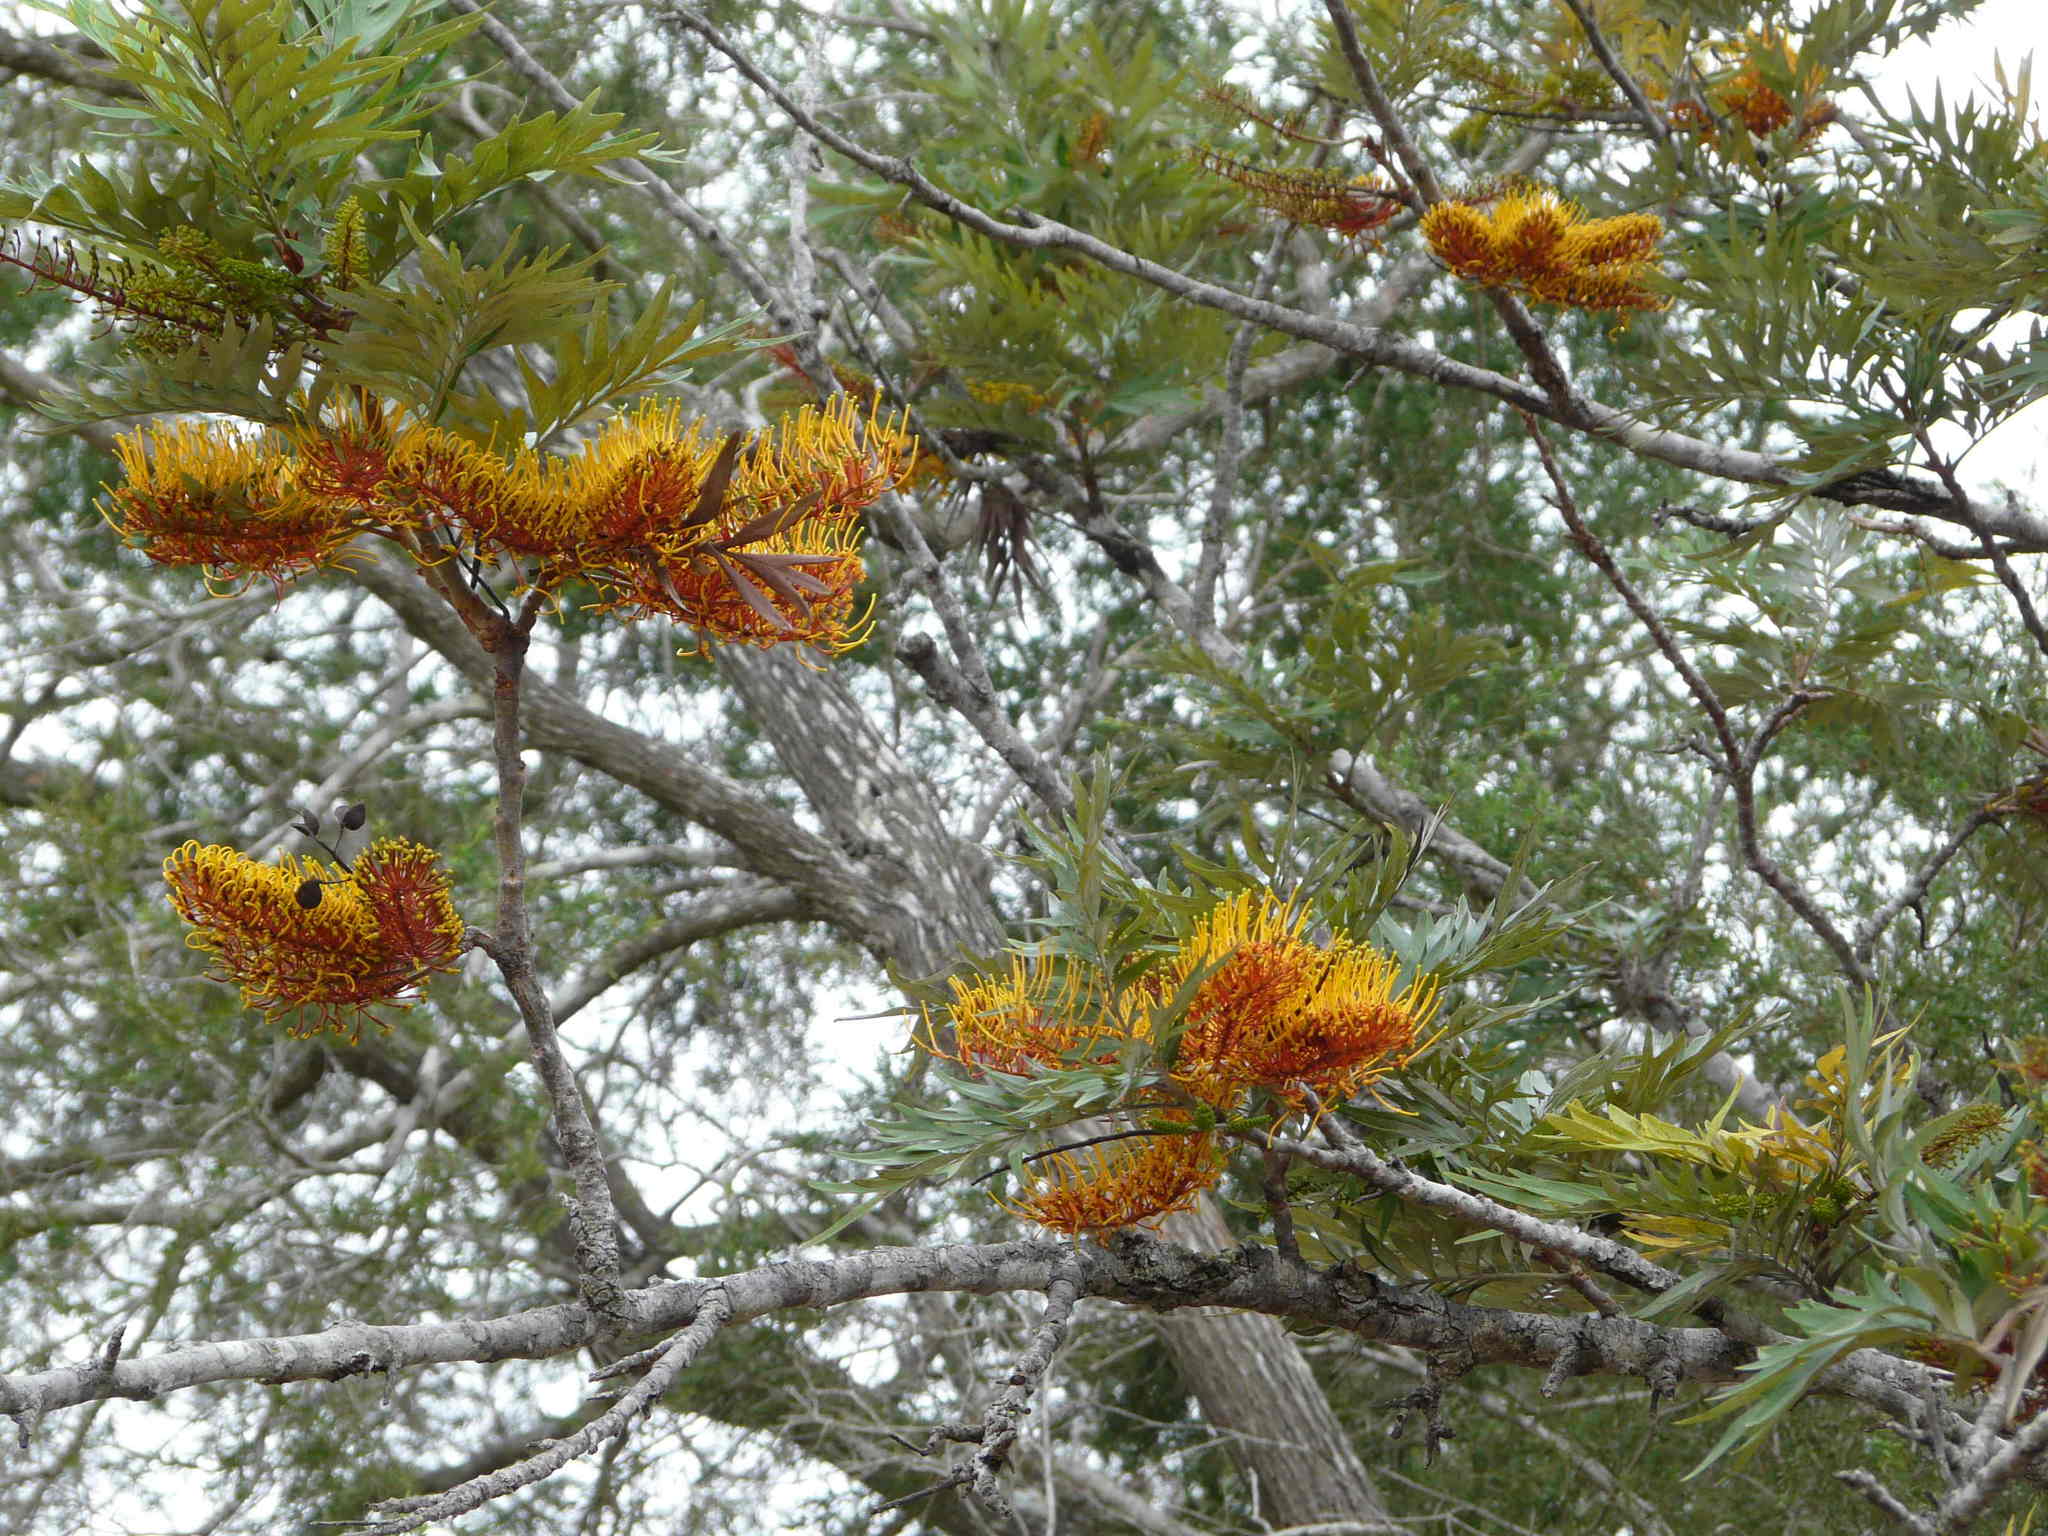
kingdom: Plantae
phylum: Tracheophyta
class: Magnoliopsida
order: Proteales
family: Proteaceae
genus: Grevillea
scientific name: Grevillea robusta
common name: Silkoak
